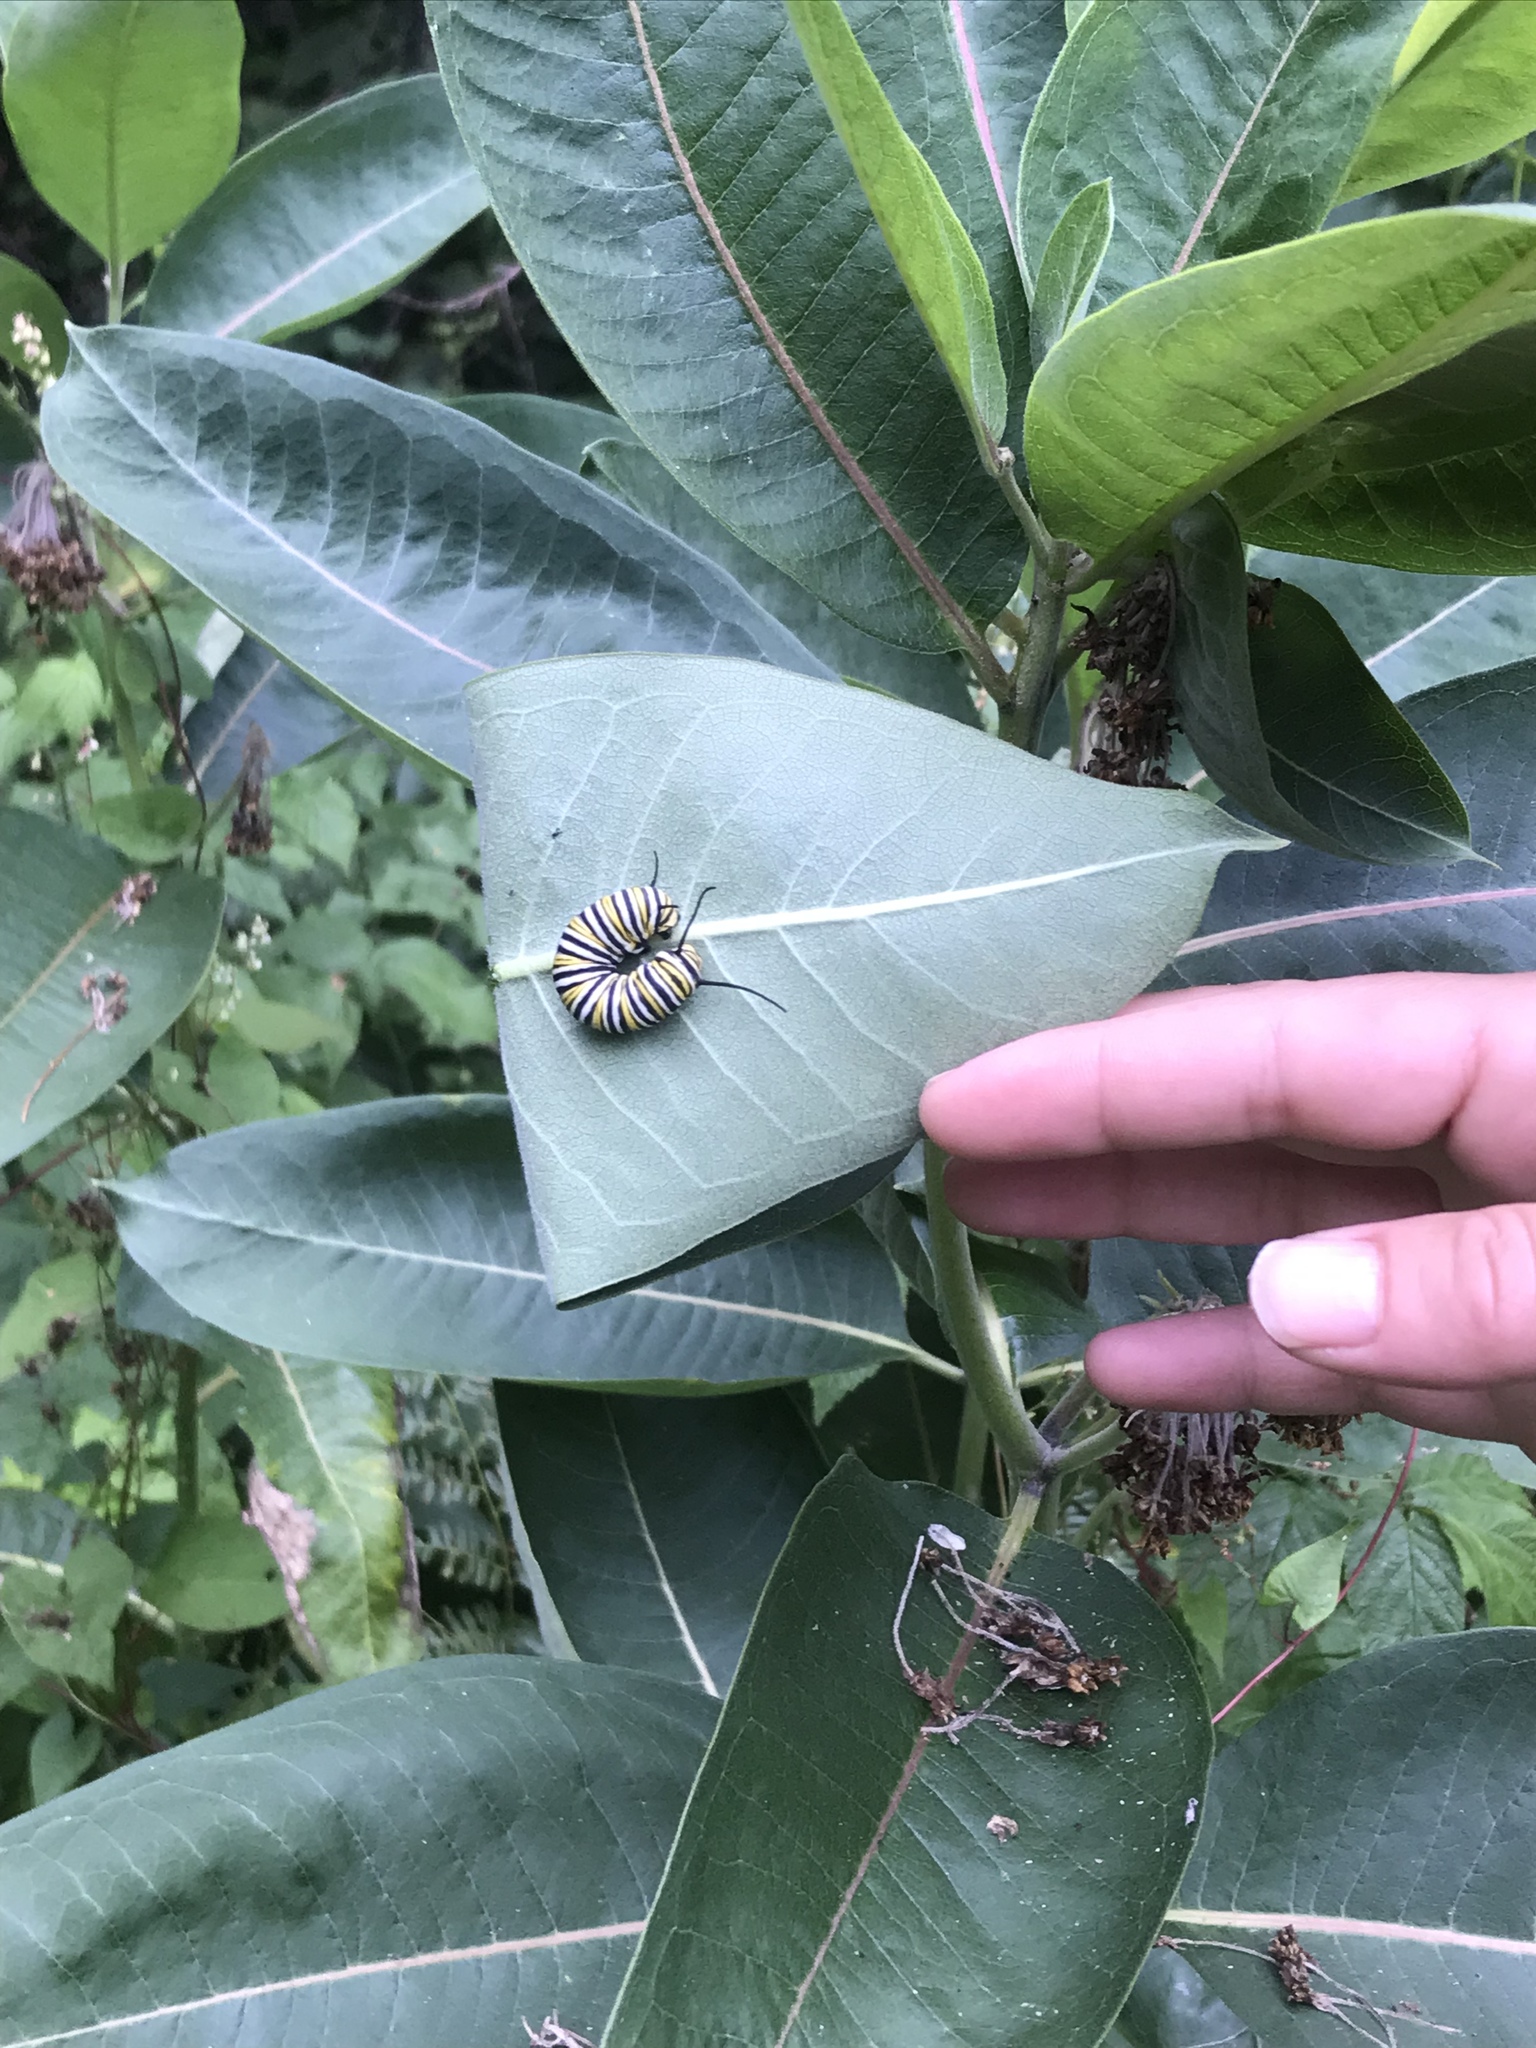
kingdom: Animalia
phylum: Arthropoda
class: Insecta
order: Lepidoptera
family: Nymphalidae
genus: Danaus
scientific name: Danaus plexippus
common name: Monarch
